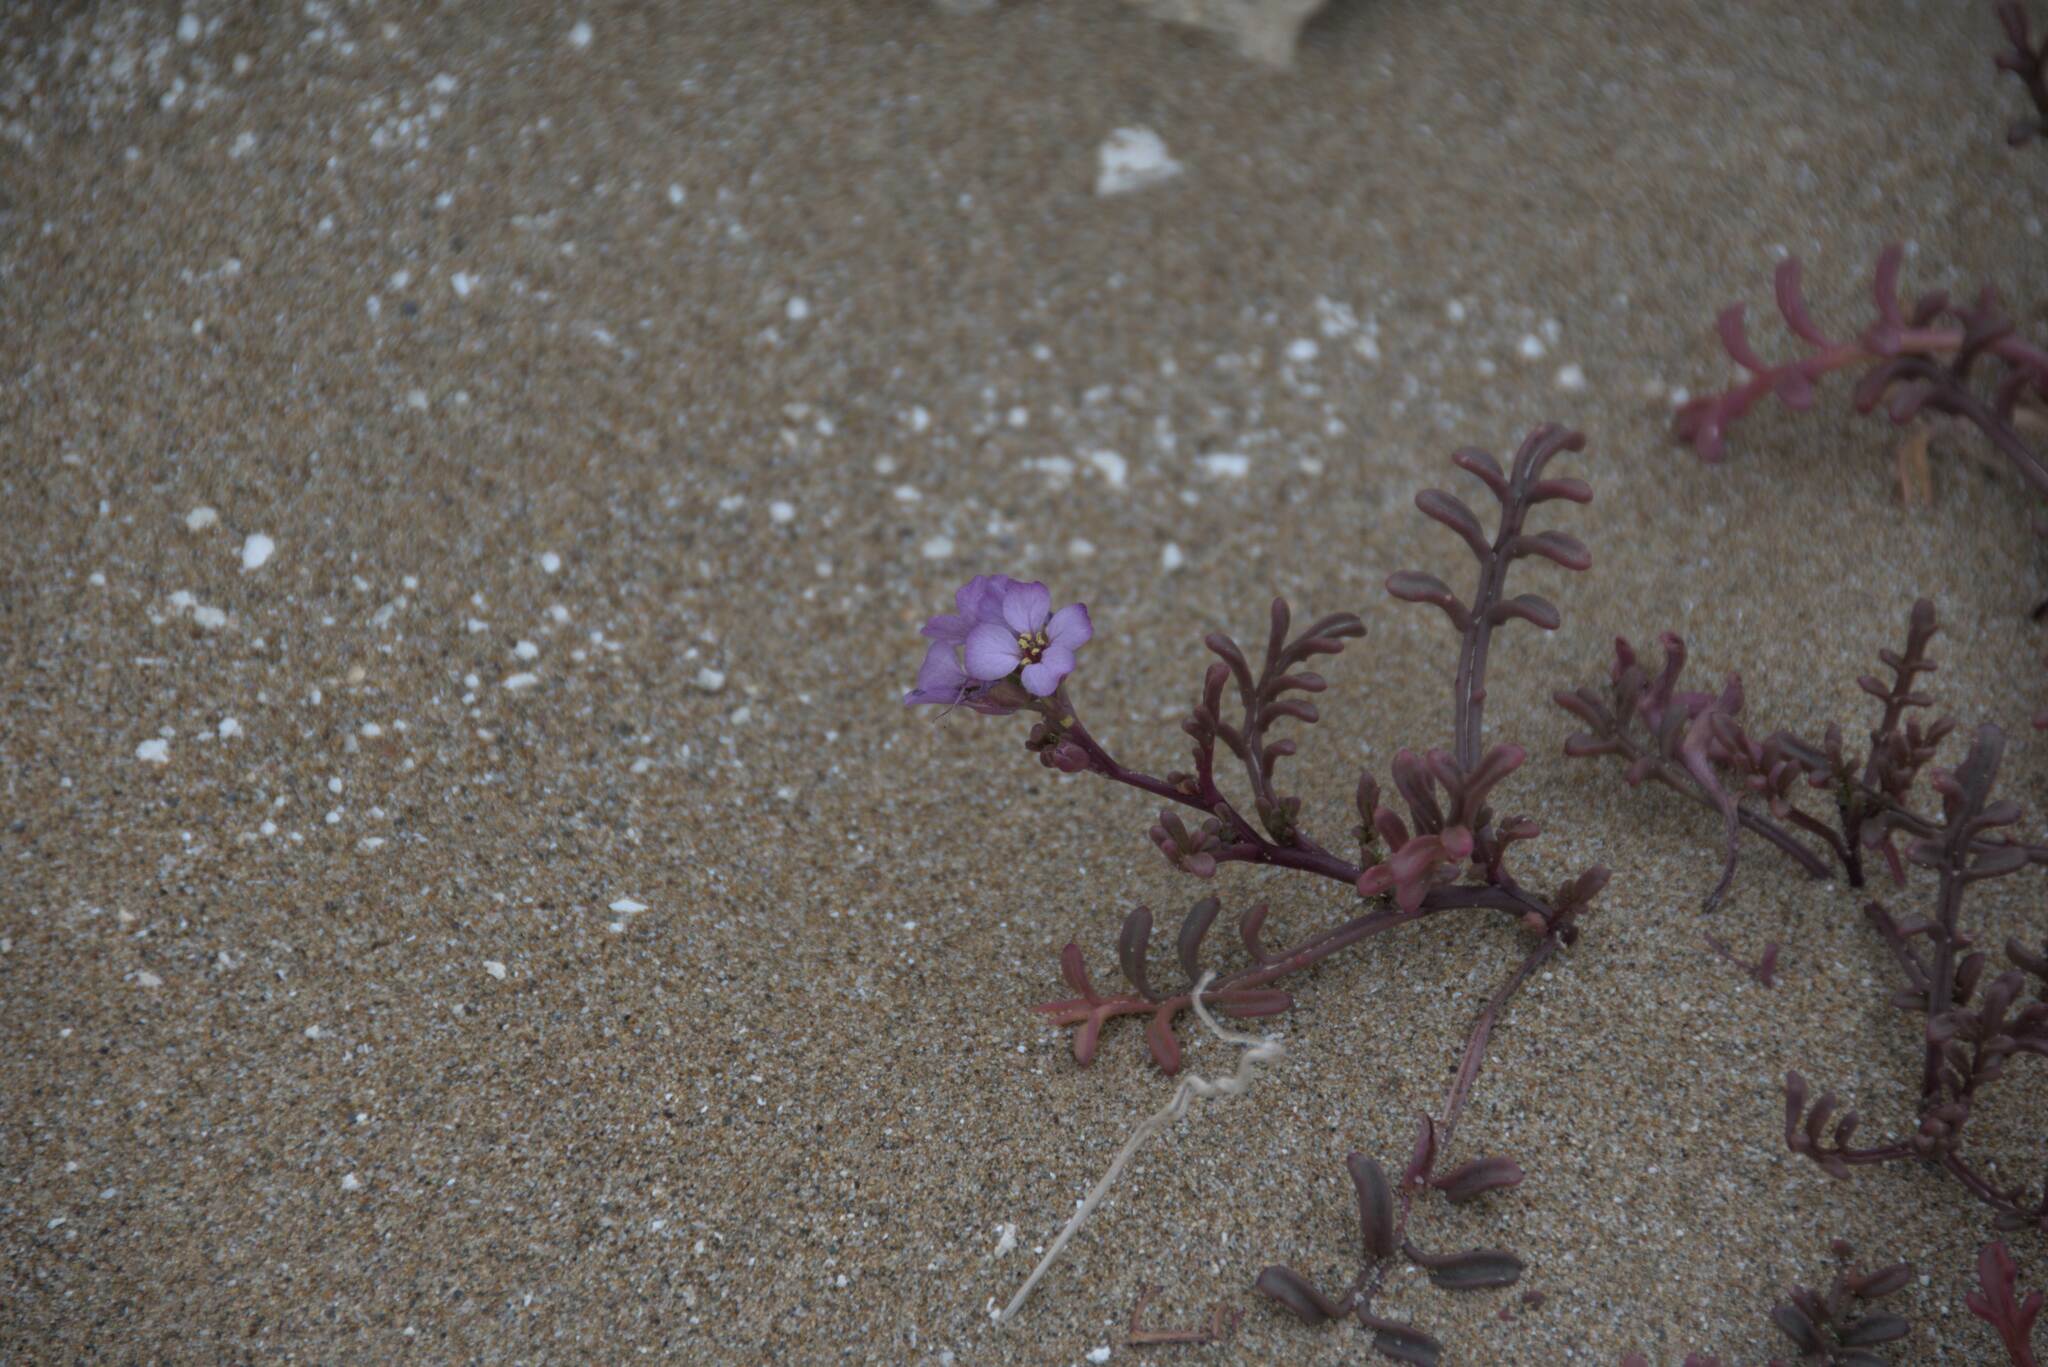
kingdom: Plantae
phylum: Tracheophyta
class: Magnoliopsida
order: Brassicales
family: Brassicaceae
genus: Cakile
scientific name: Cakile maritima
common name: Sea rocket
